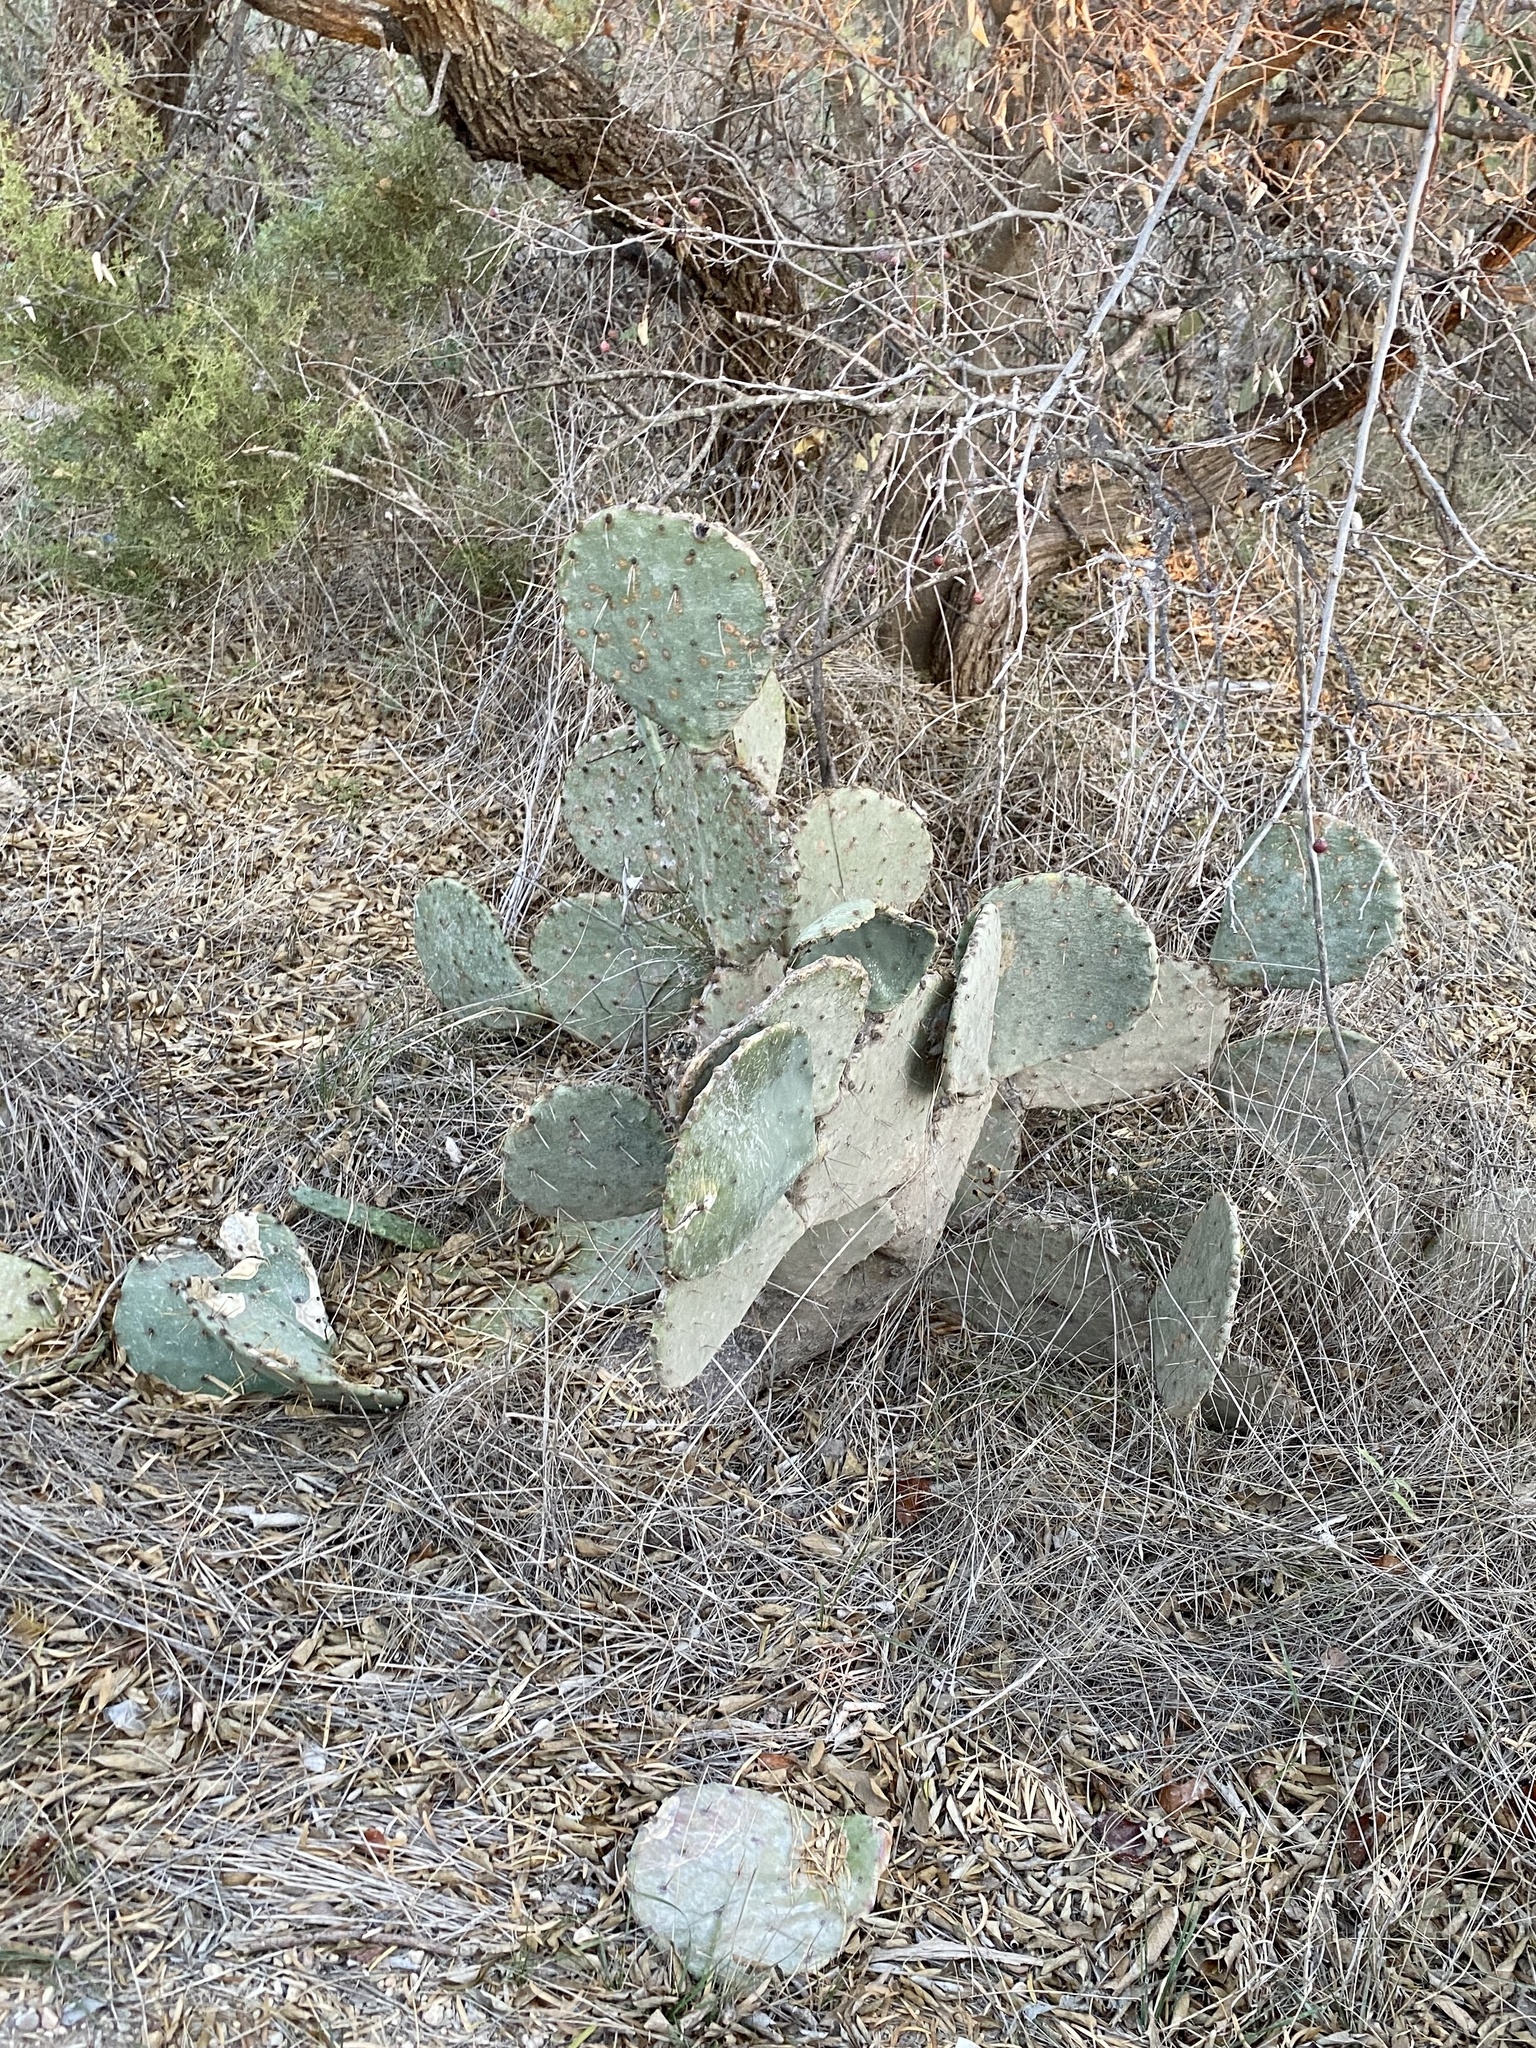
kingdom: Plantae
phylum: Tracheophyta
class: Magnoliopsida
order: Caryophyllales
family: Cactaceae
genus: Opuntia
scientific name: Opuntia engelmannii
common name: Cactus-apple
